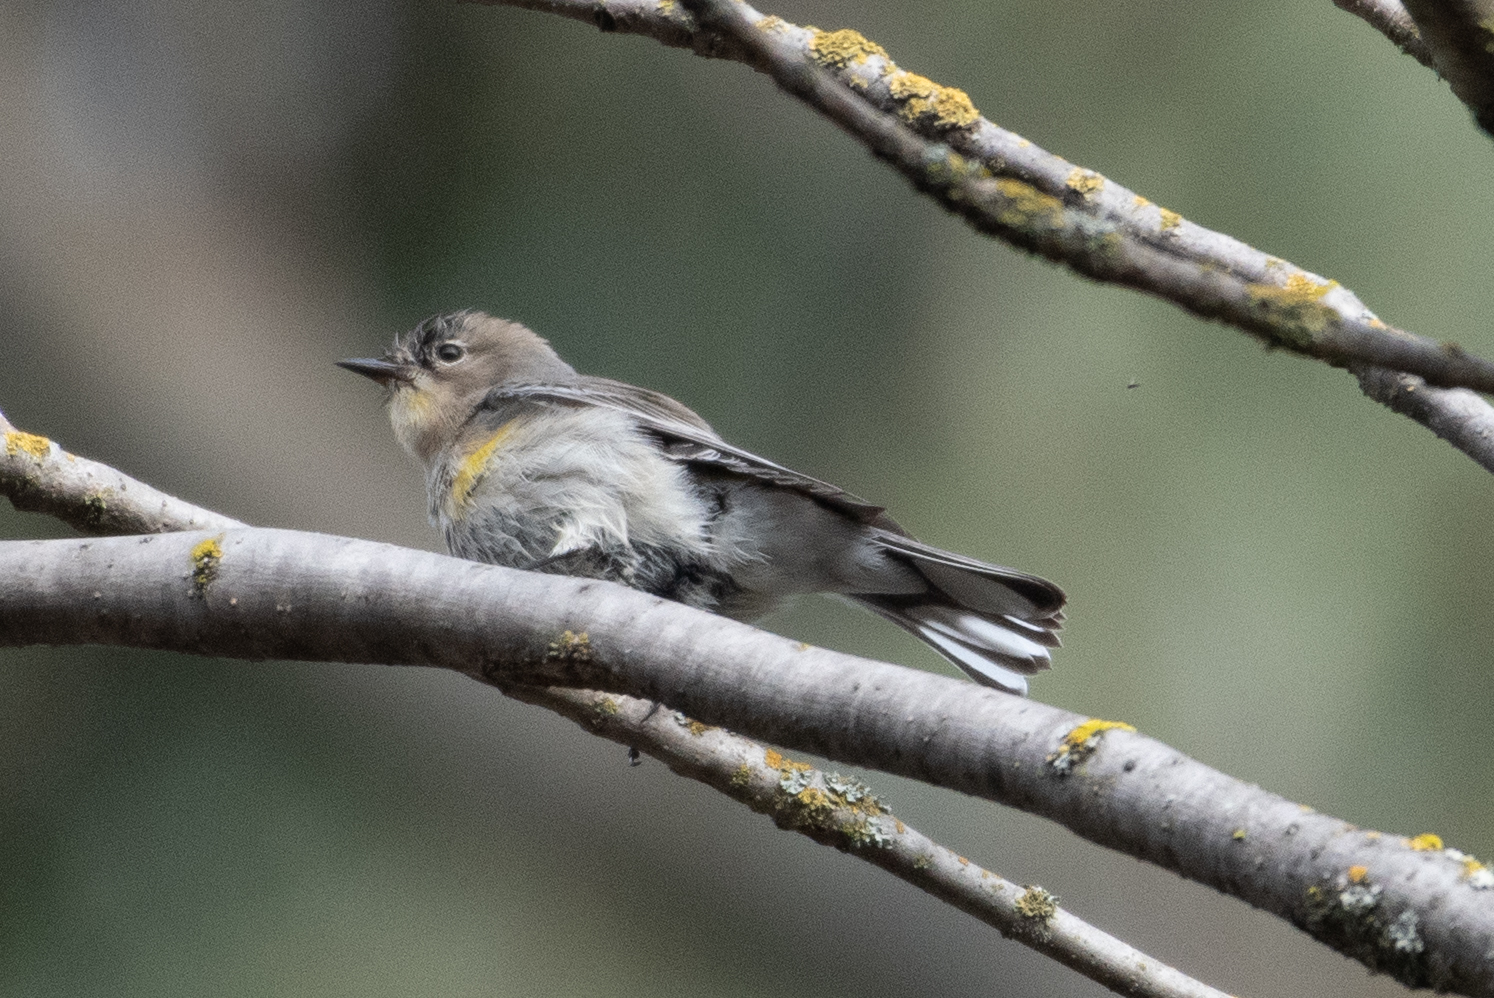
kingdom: Animalia
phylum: Chordata
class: Aves
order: Passeriformes
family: Parulidae
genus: Setophaga
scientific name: Setophaga coronata
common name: Myrtle warbler
